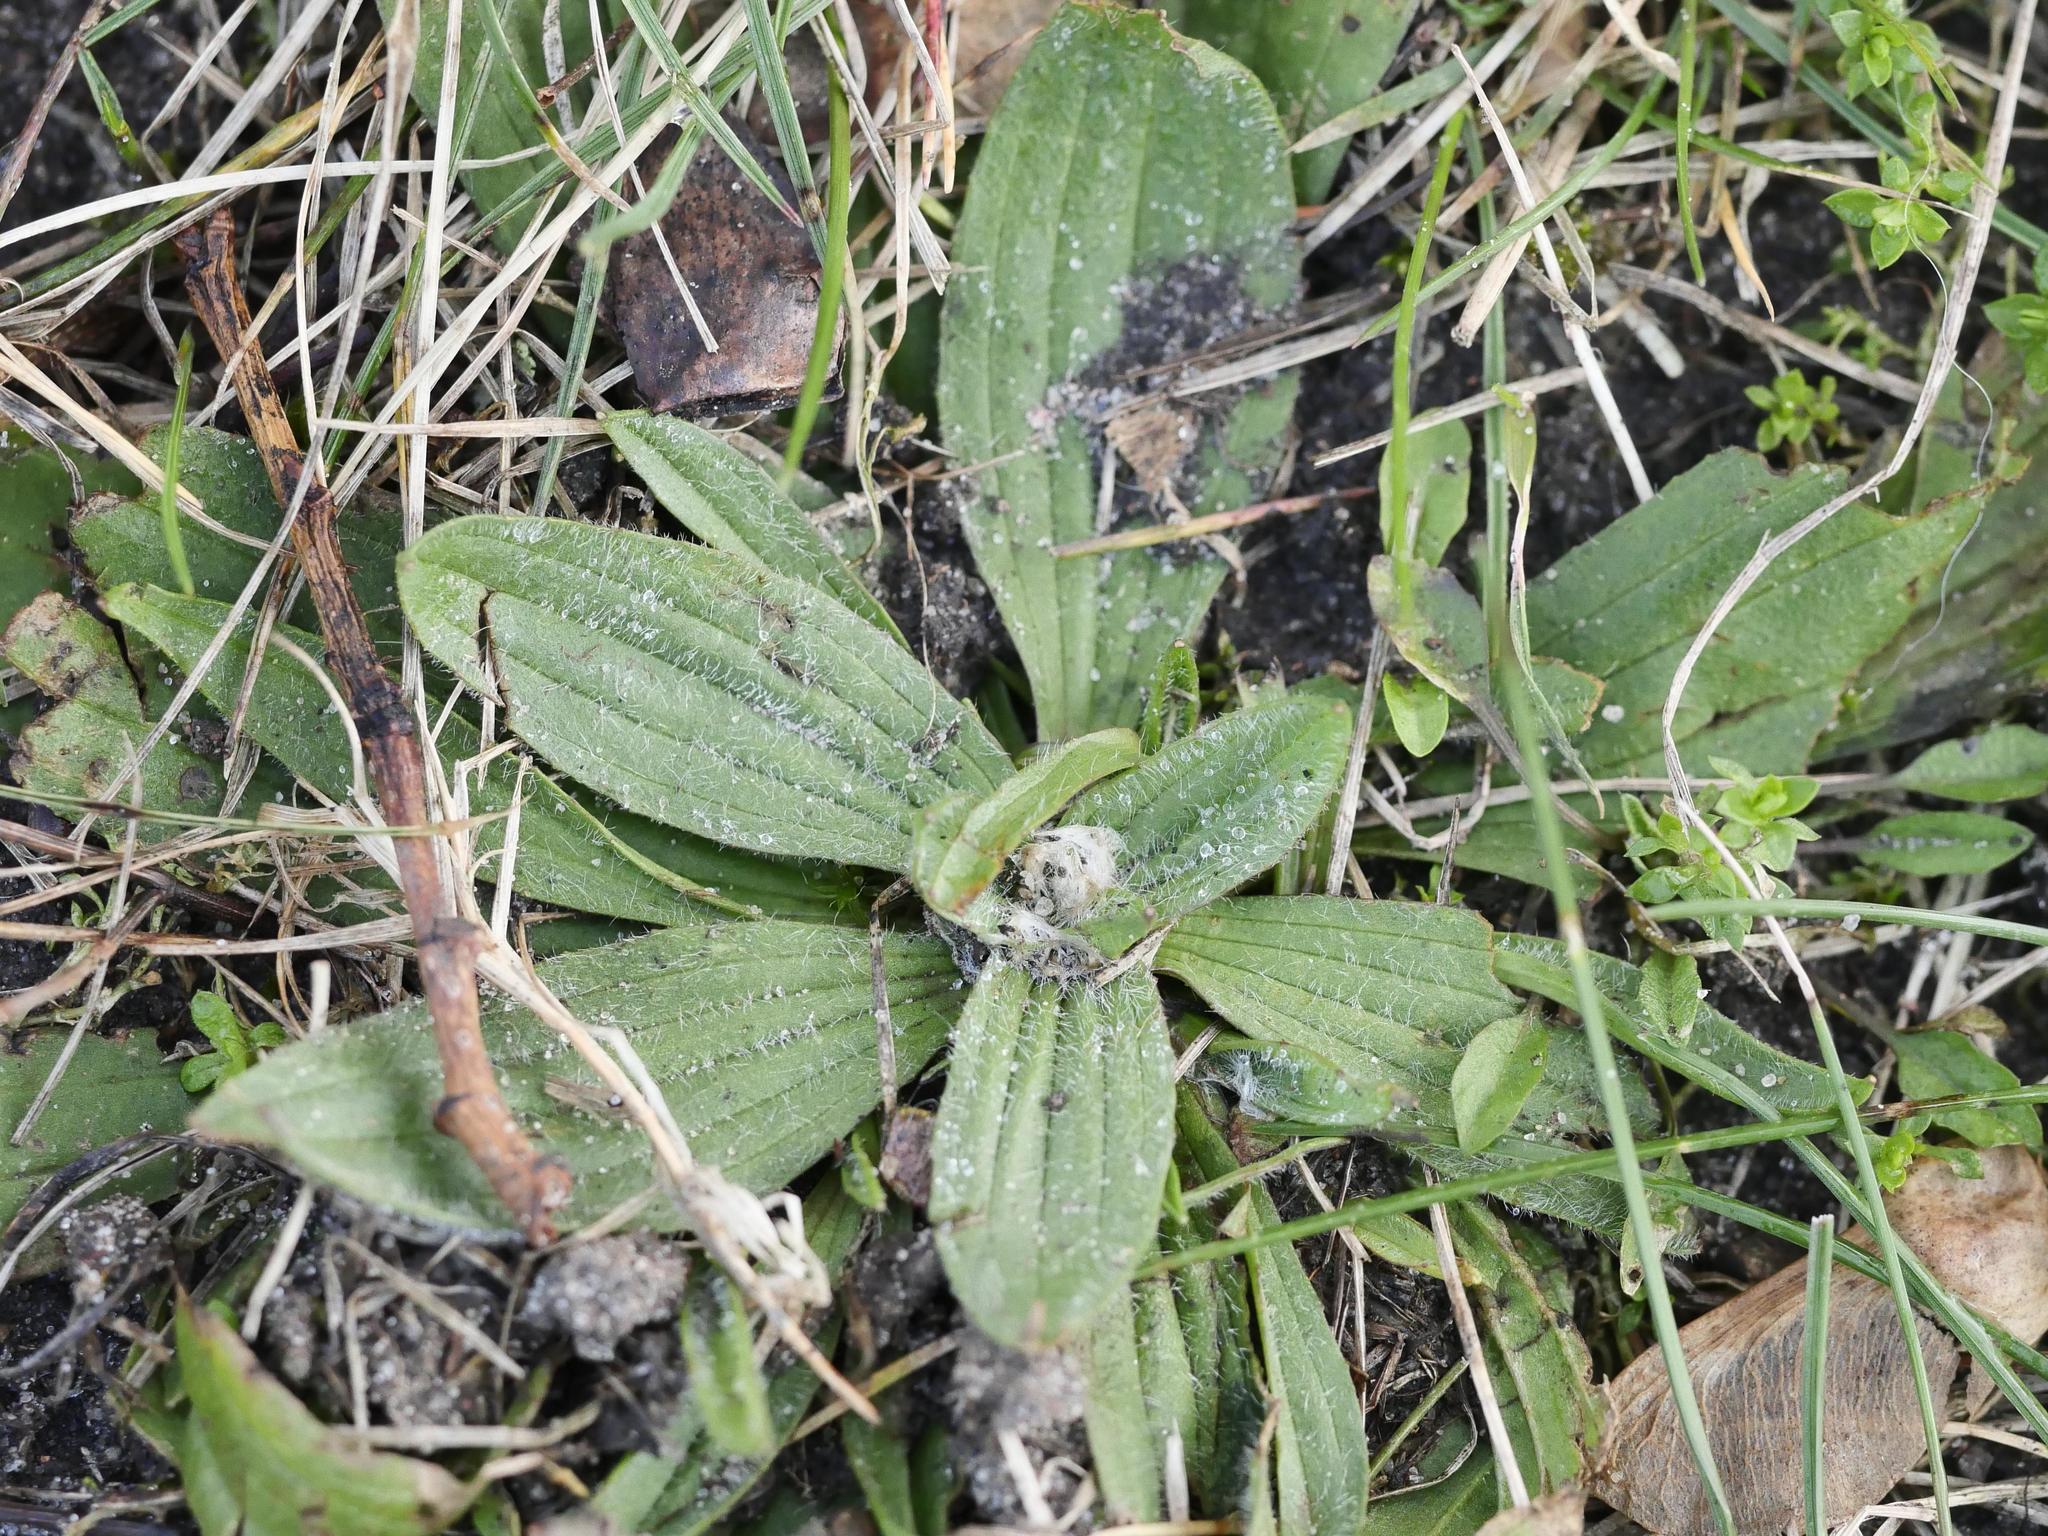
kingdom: Plantae
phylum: Tracheophyta
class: Magnoliopsida
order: Lamiales
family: Plantaginaceae
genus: Plantago
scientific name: Plantago lanceolata
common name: Ribwort plantain
